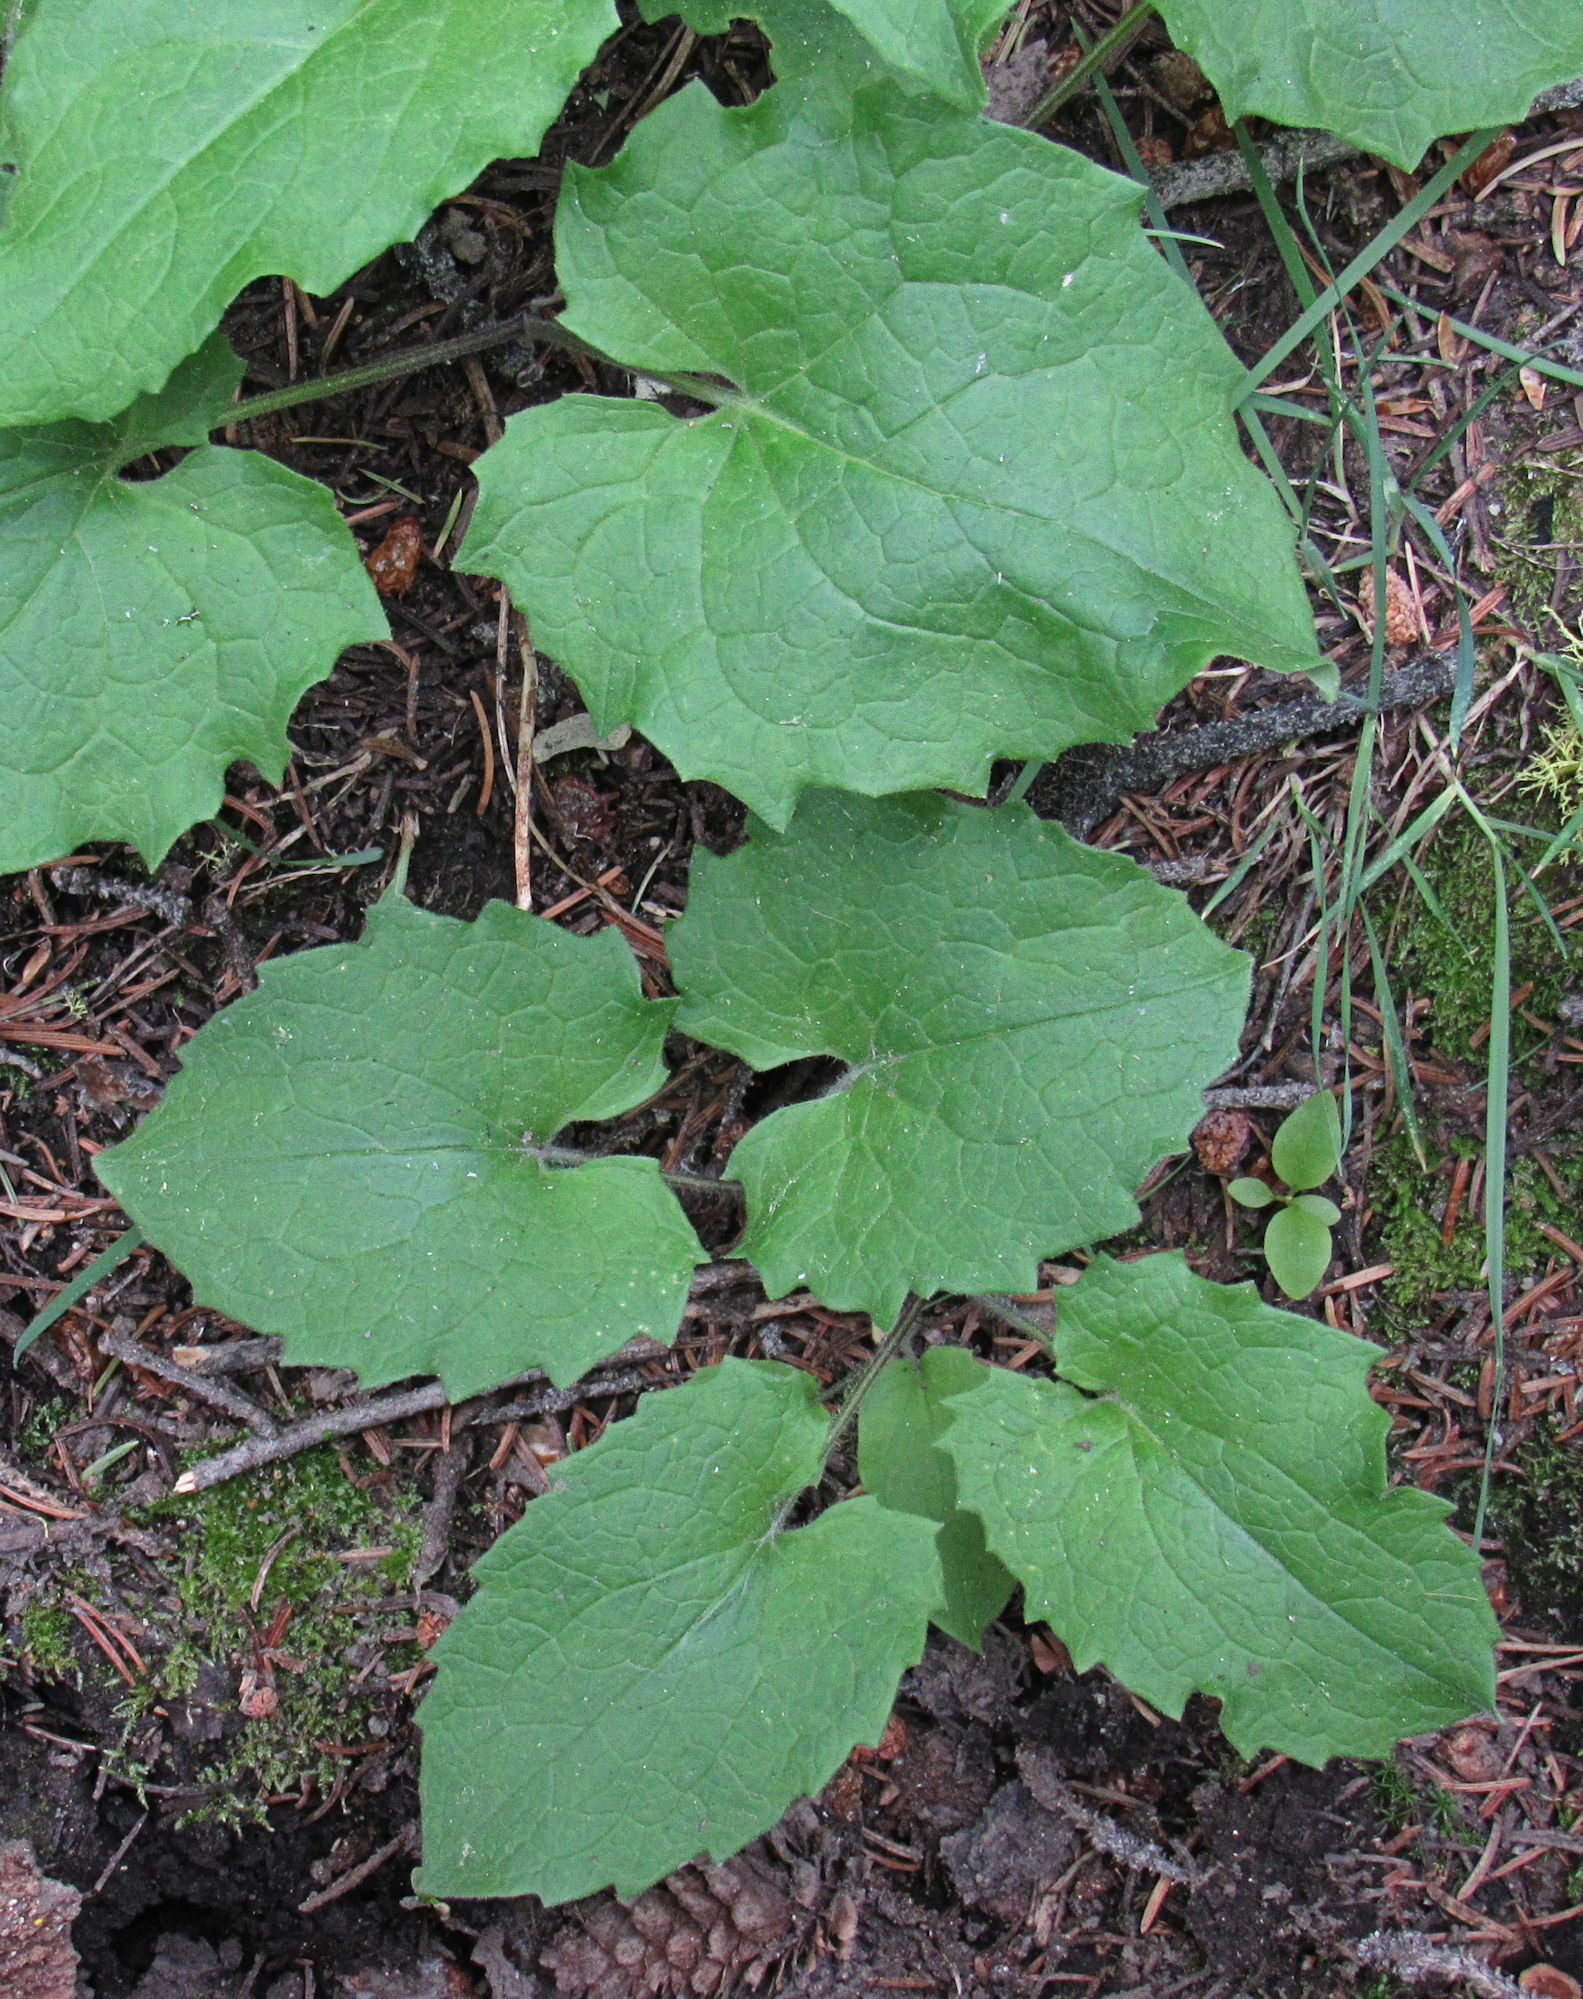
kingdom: Plantae
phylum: Tracheophyta
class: Magnoliopsida
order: Asterales
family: Asteraceae
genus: Arnica
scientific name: Arnica cordifolia
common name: Heart-leaf arnica
